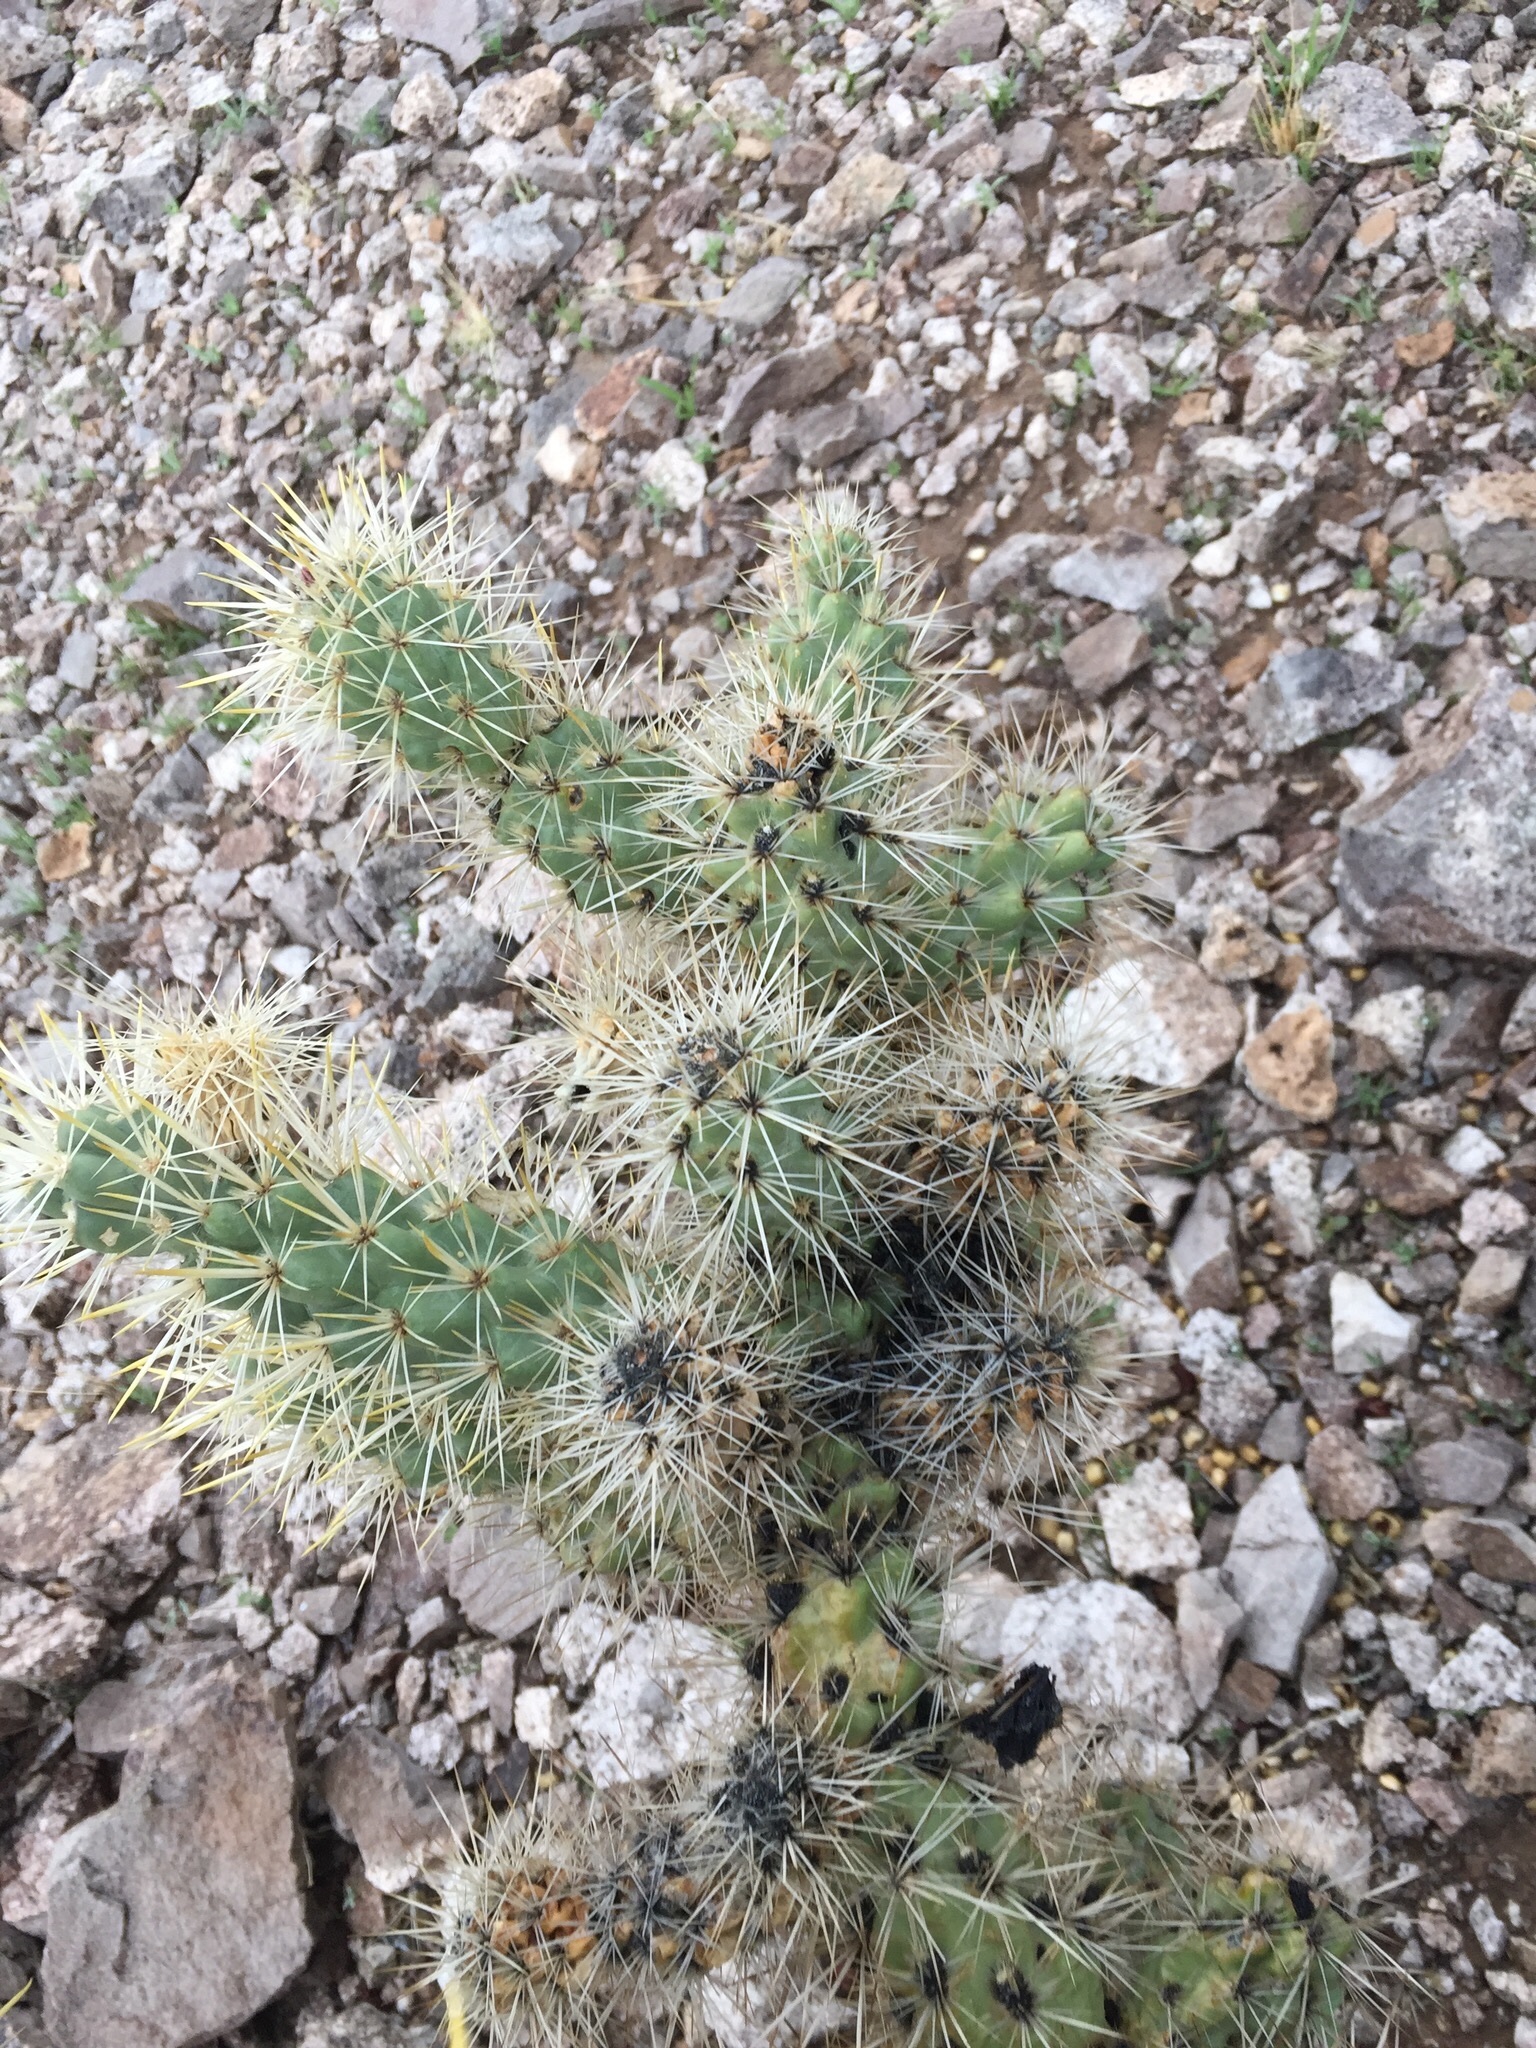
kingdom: Plantae
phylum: Tracheophyta
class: Magnoliopsida
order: Caryophyllales
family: Cactaceae
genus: Cylindropuntia
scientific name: Cylindropuntia echinocarpa
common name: Ground cholla
